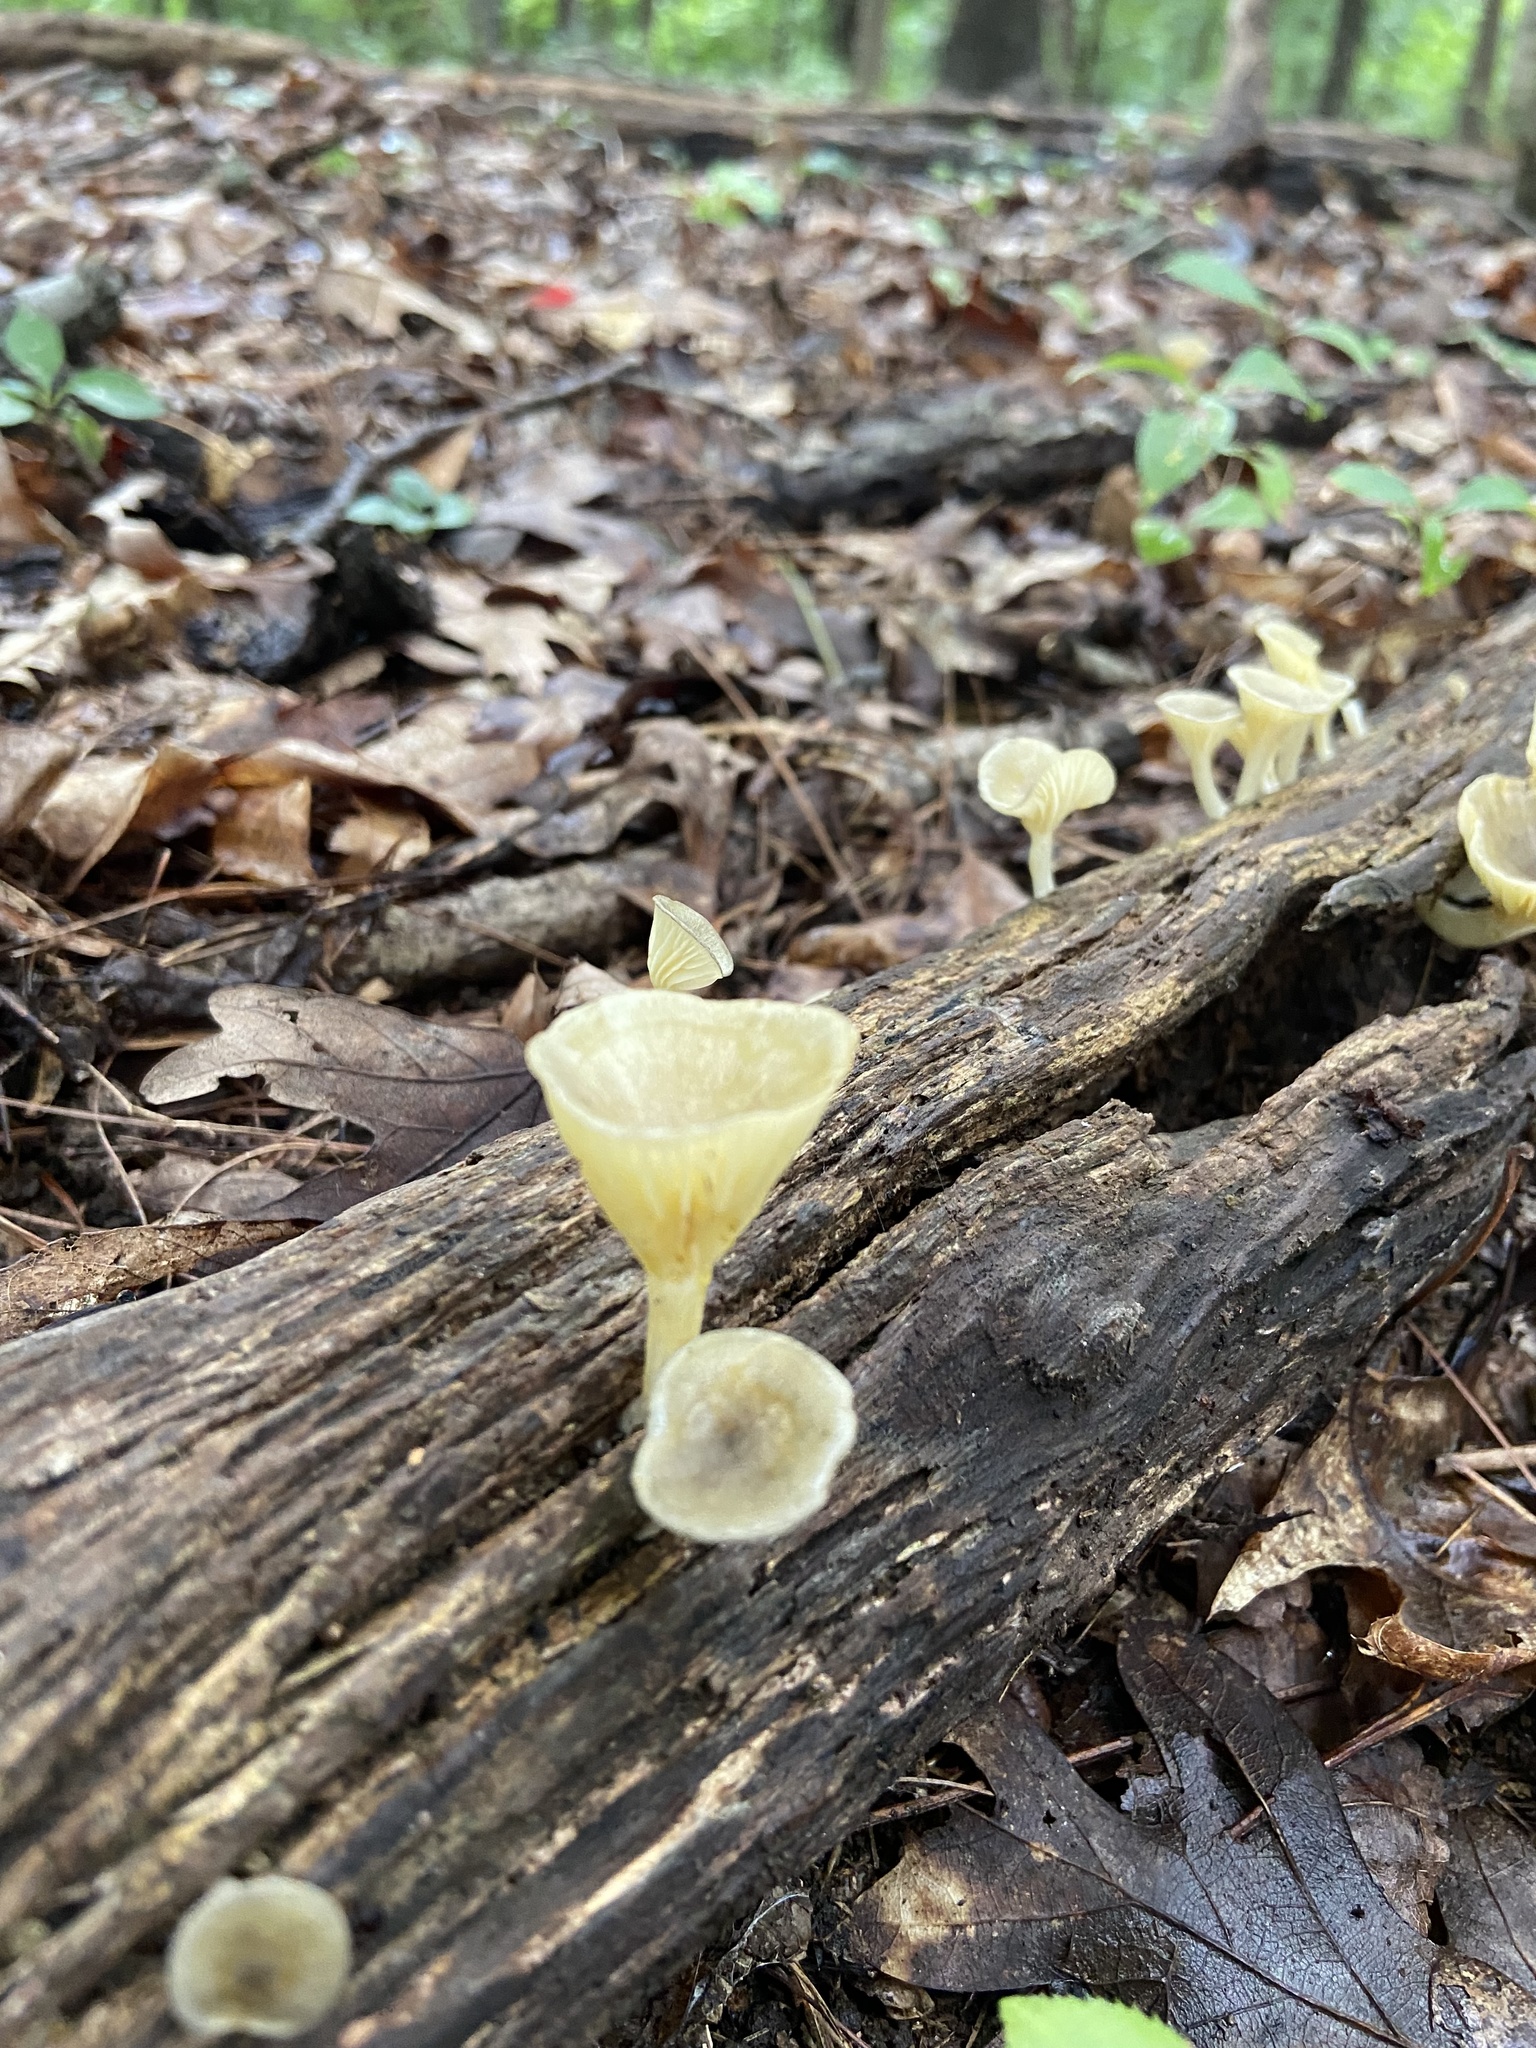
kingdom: Fungi
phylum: Basidiomycota
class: Agaricomycetes
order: Agaricales
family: Marasmiaceae
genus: Gerronema
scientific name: Gerronema strombodes
